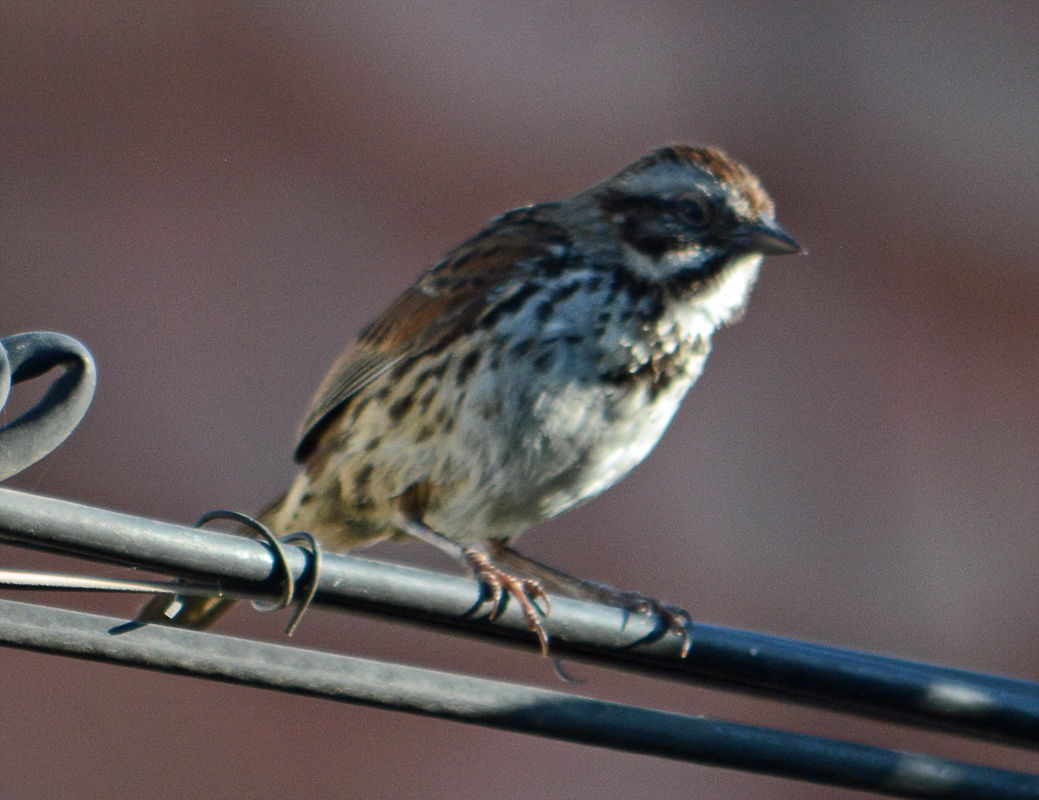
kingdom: Animalia
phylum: Chordata
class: Aves
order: Passeriformes
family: Passerellidae
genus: Melospiza
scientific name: Melospiza melodia
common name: Song sparrow
